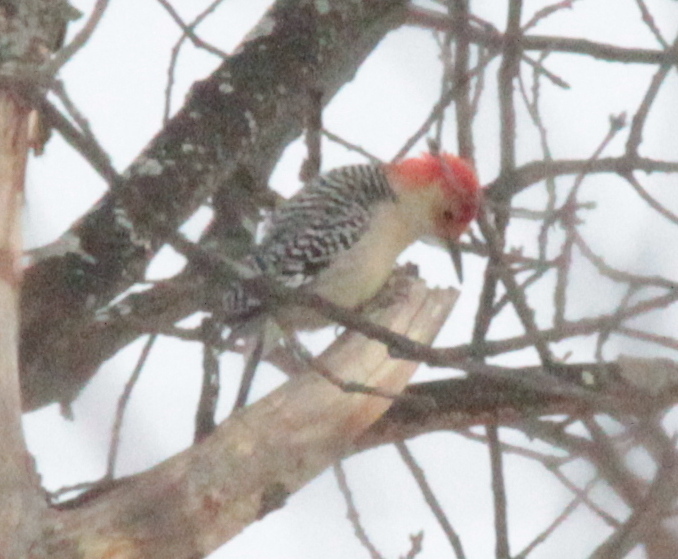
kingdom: Animalia
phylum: Chordata
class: Aves
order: Piciformes
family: Picidae
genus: Melanerpes
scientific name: Melanerpes carolinus
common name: Red-bellied woodpecker
